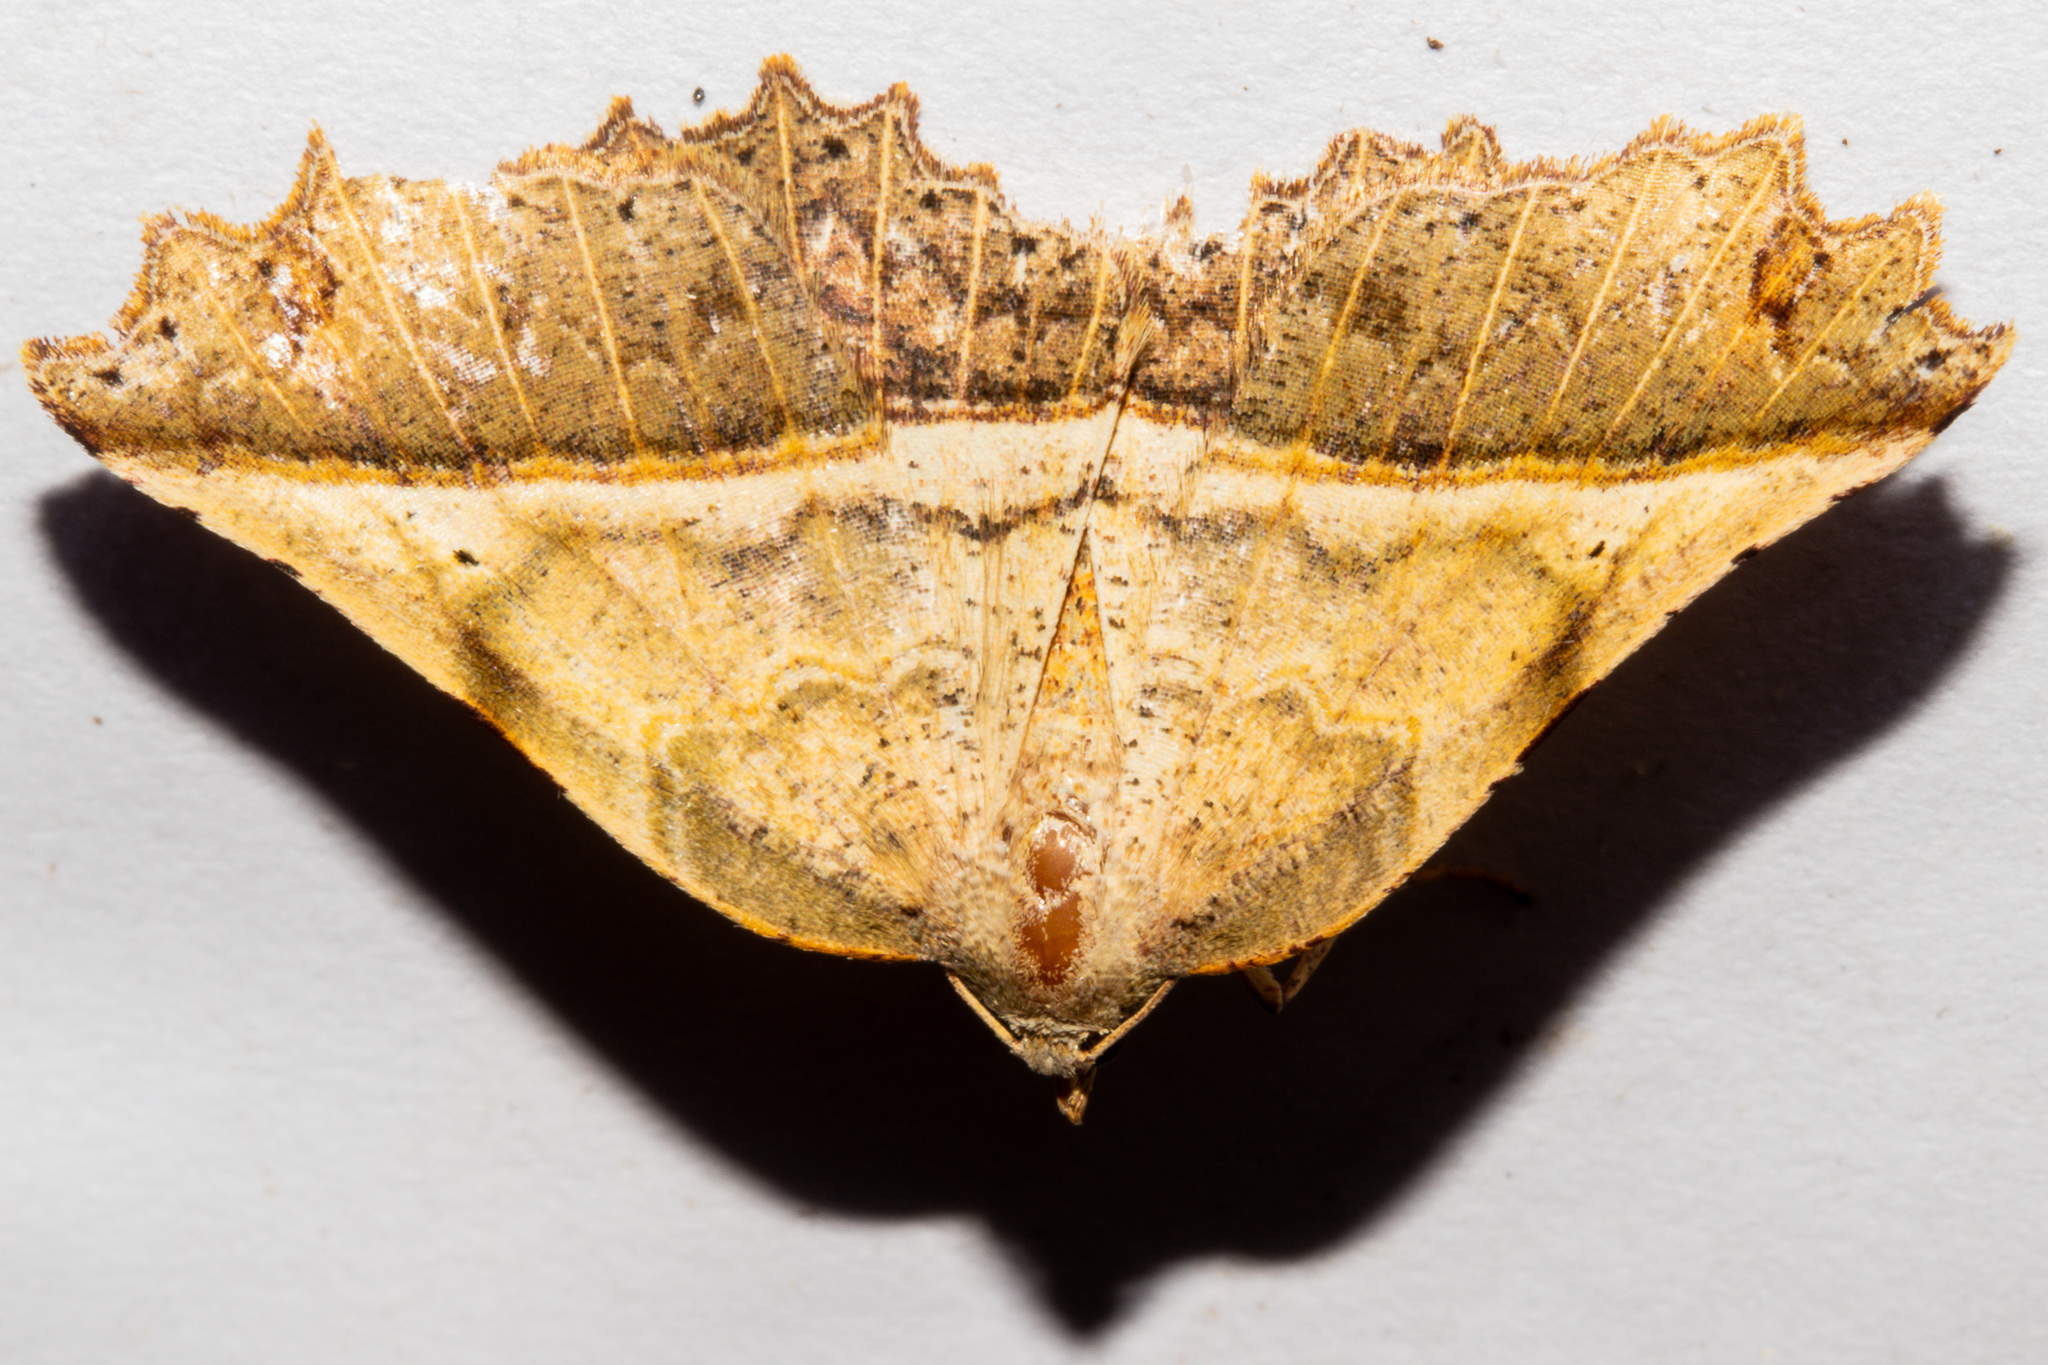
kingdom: Animalia
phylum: Arthropoda
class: Insecta
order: Lepidoptera
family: Geometridae
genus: Ischalis
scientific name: Ischalis gallaria
